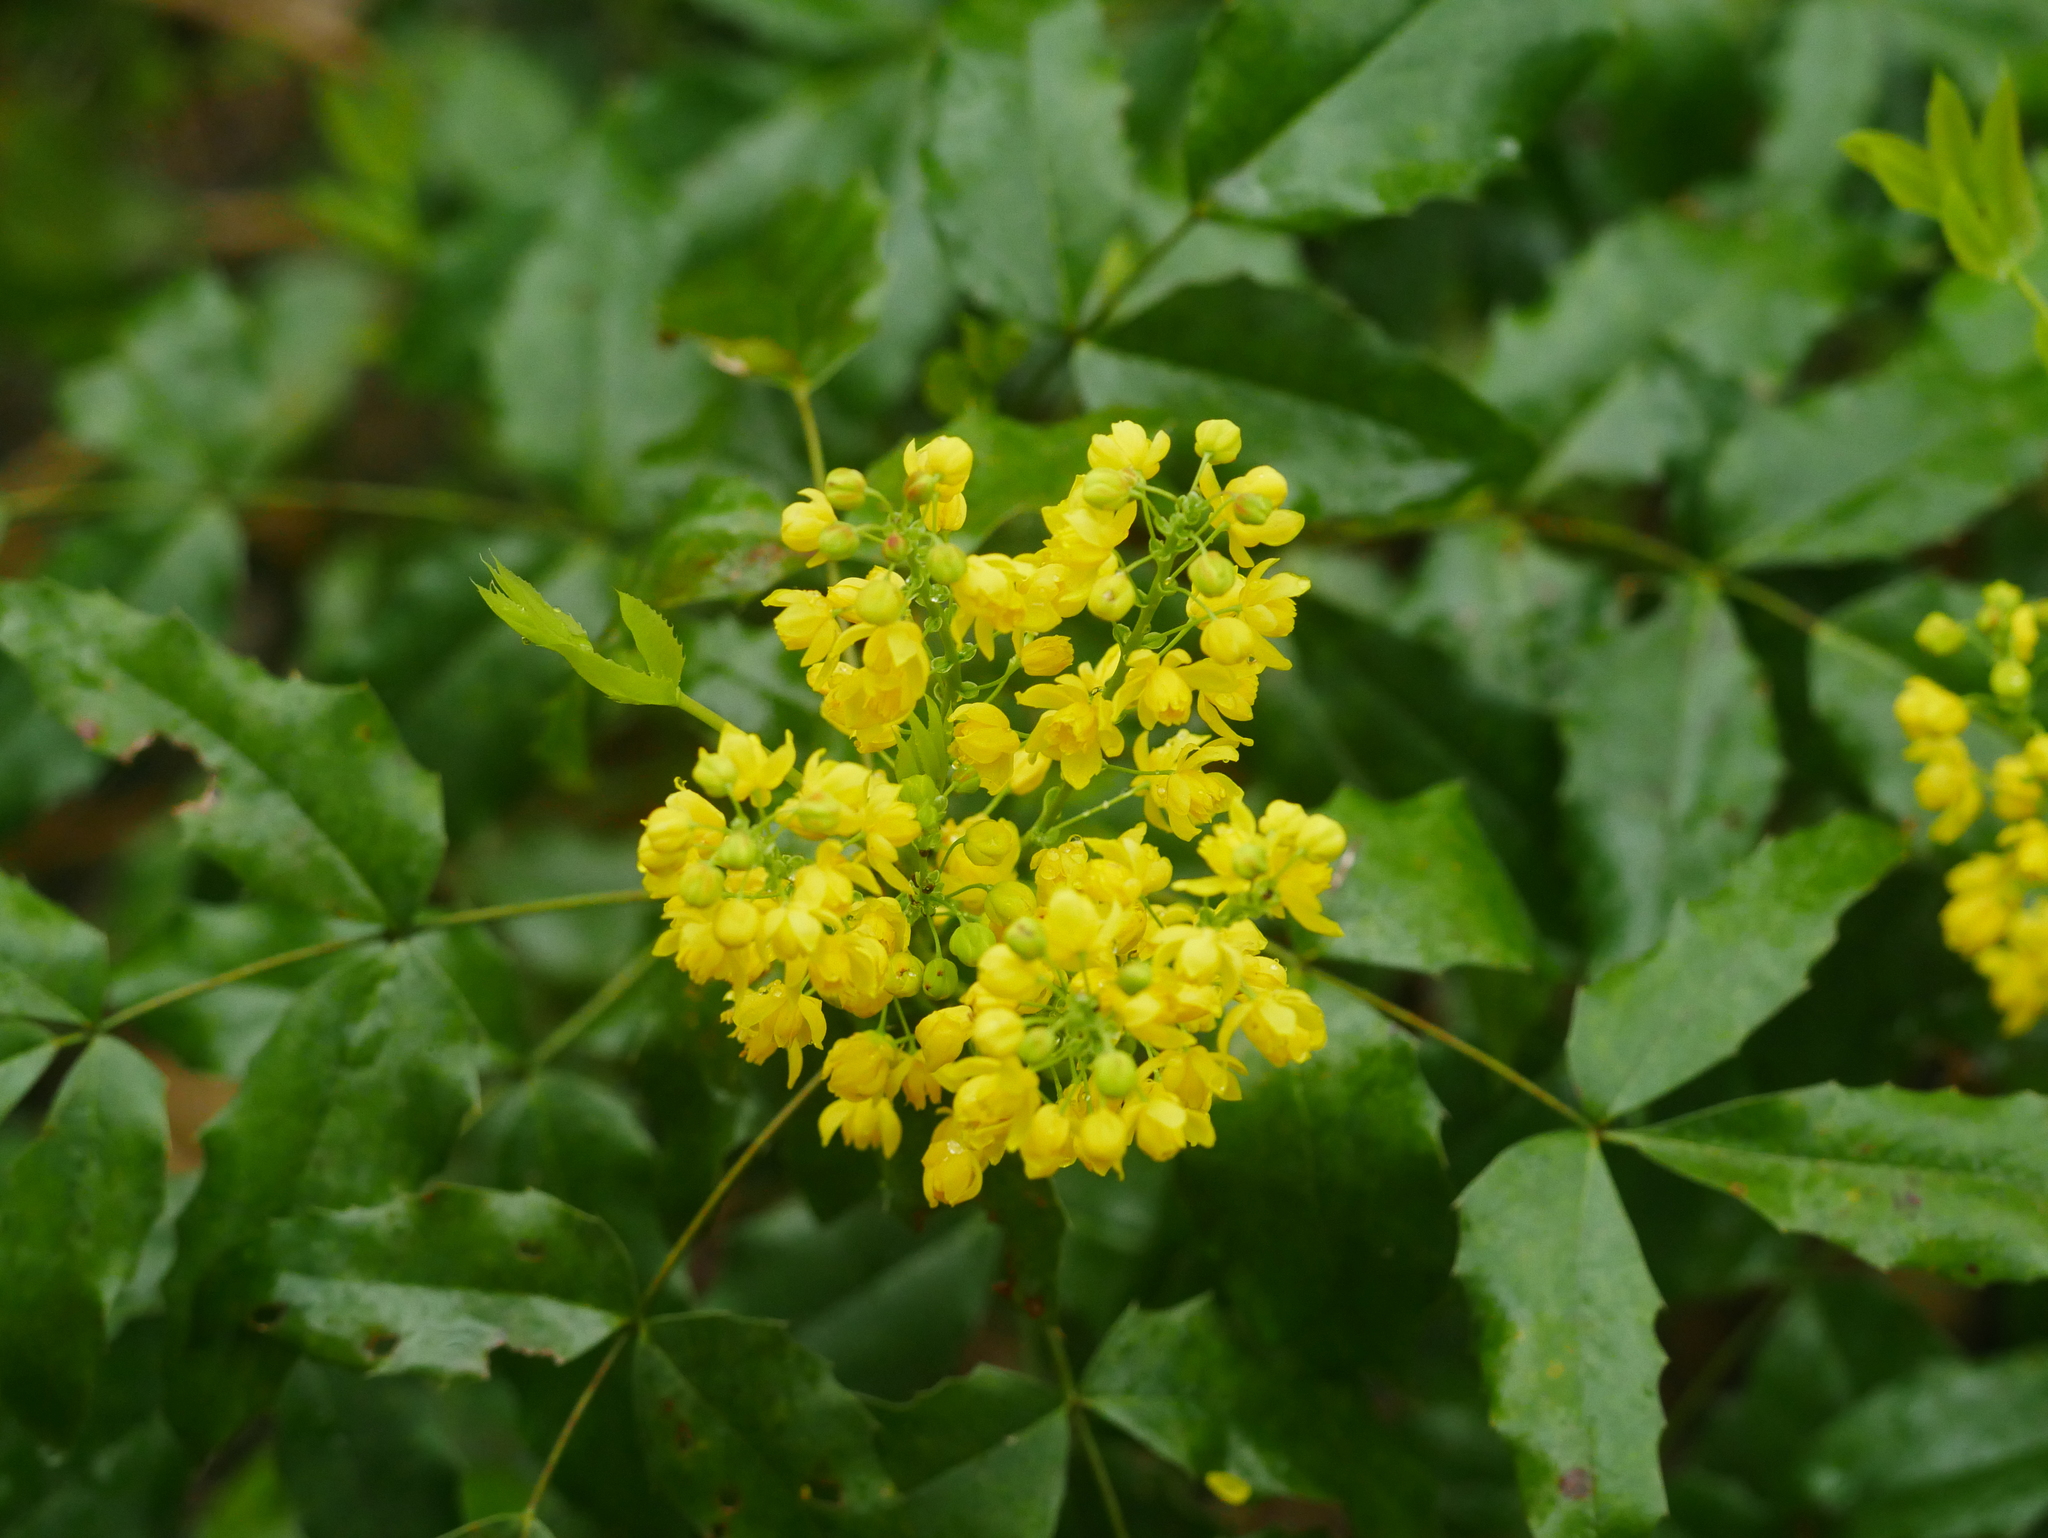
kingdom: Plantae
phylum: Tracheophyta
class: Magnoliopsida
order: Ranunculales
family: Berberidaceae
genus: Mahonia
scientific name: Mahonia aquifolium
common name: Oregon-grape
